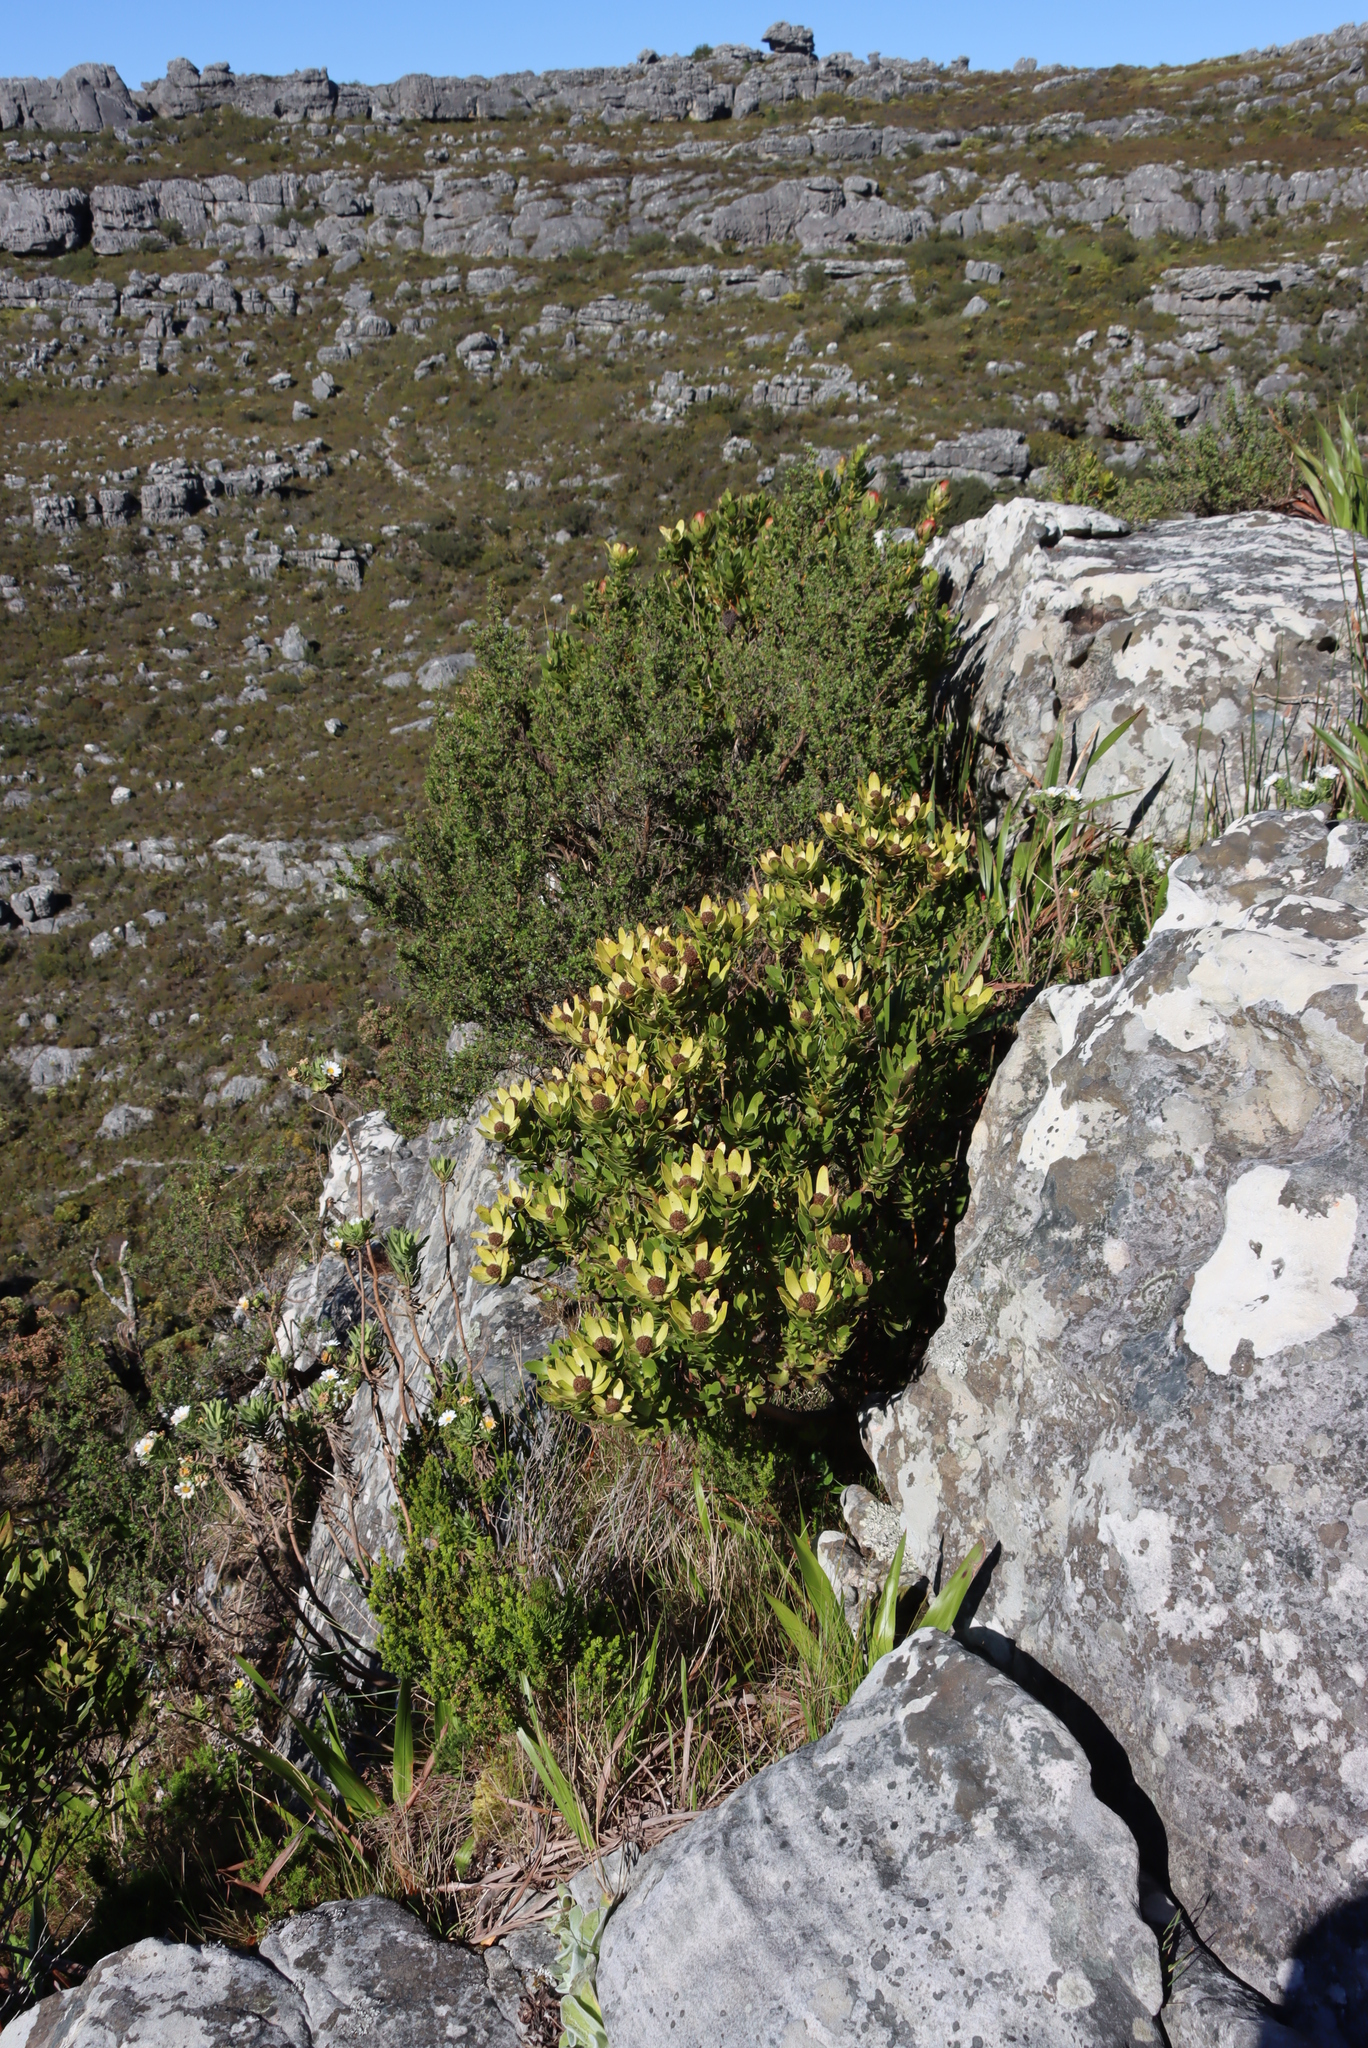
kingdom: Plantae
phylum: Tracheophyta
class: Magnoliopsida
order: Proteales
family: Proteaceae
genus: Leucadendron
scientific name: Leucadendron strobilinum
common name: Mountain rose
